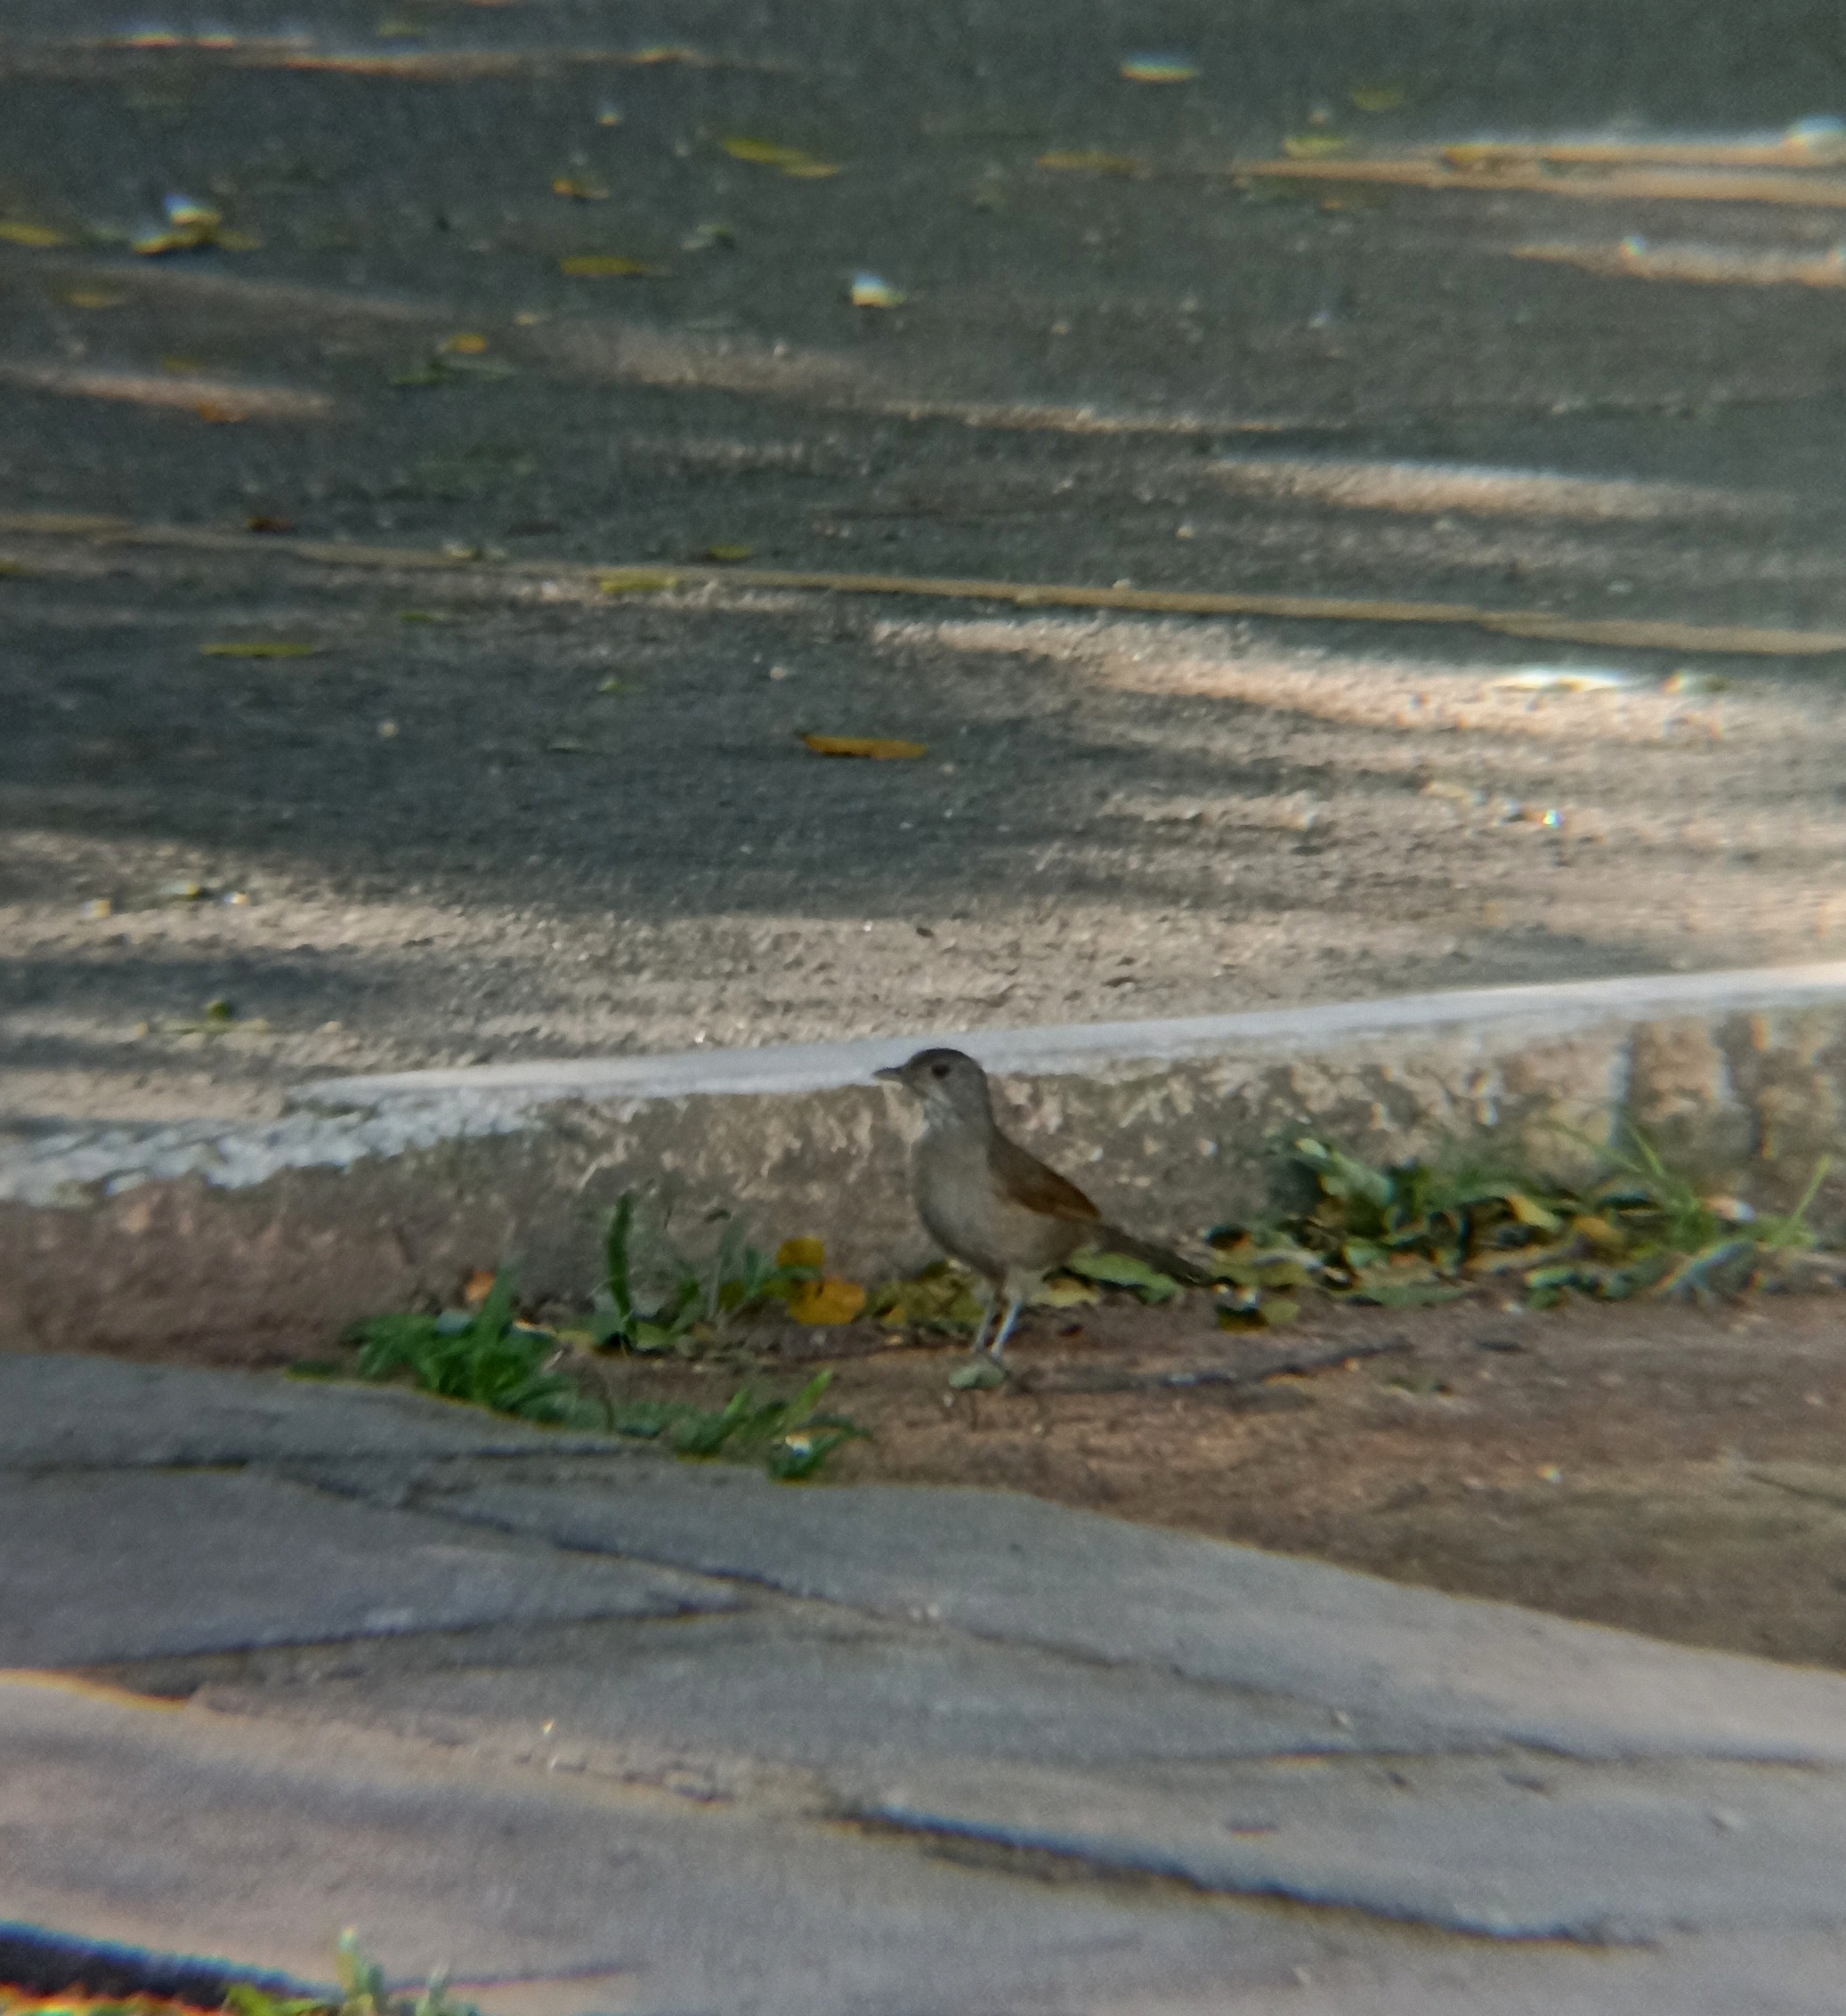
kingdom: Animalia
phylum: Chordata
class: Aves
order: Passeriformes
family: Turdidae
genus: Turdus
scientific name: Turdus leucomelas
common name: Pale-breasted thrush
